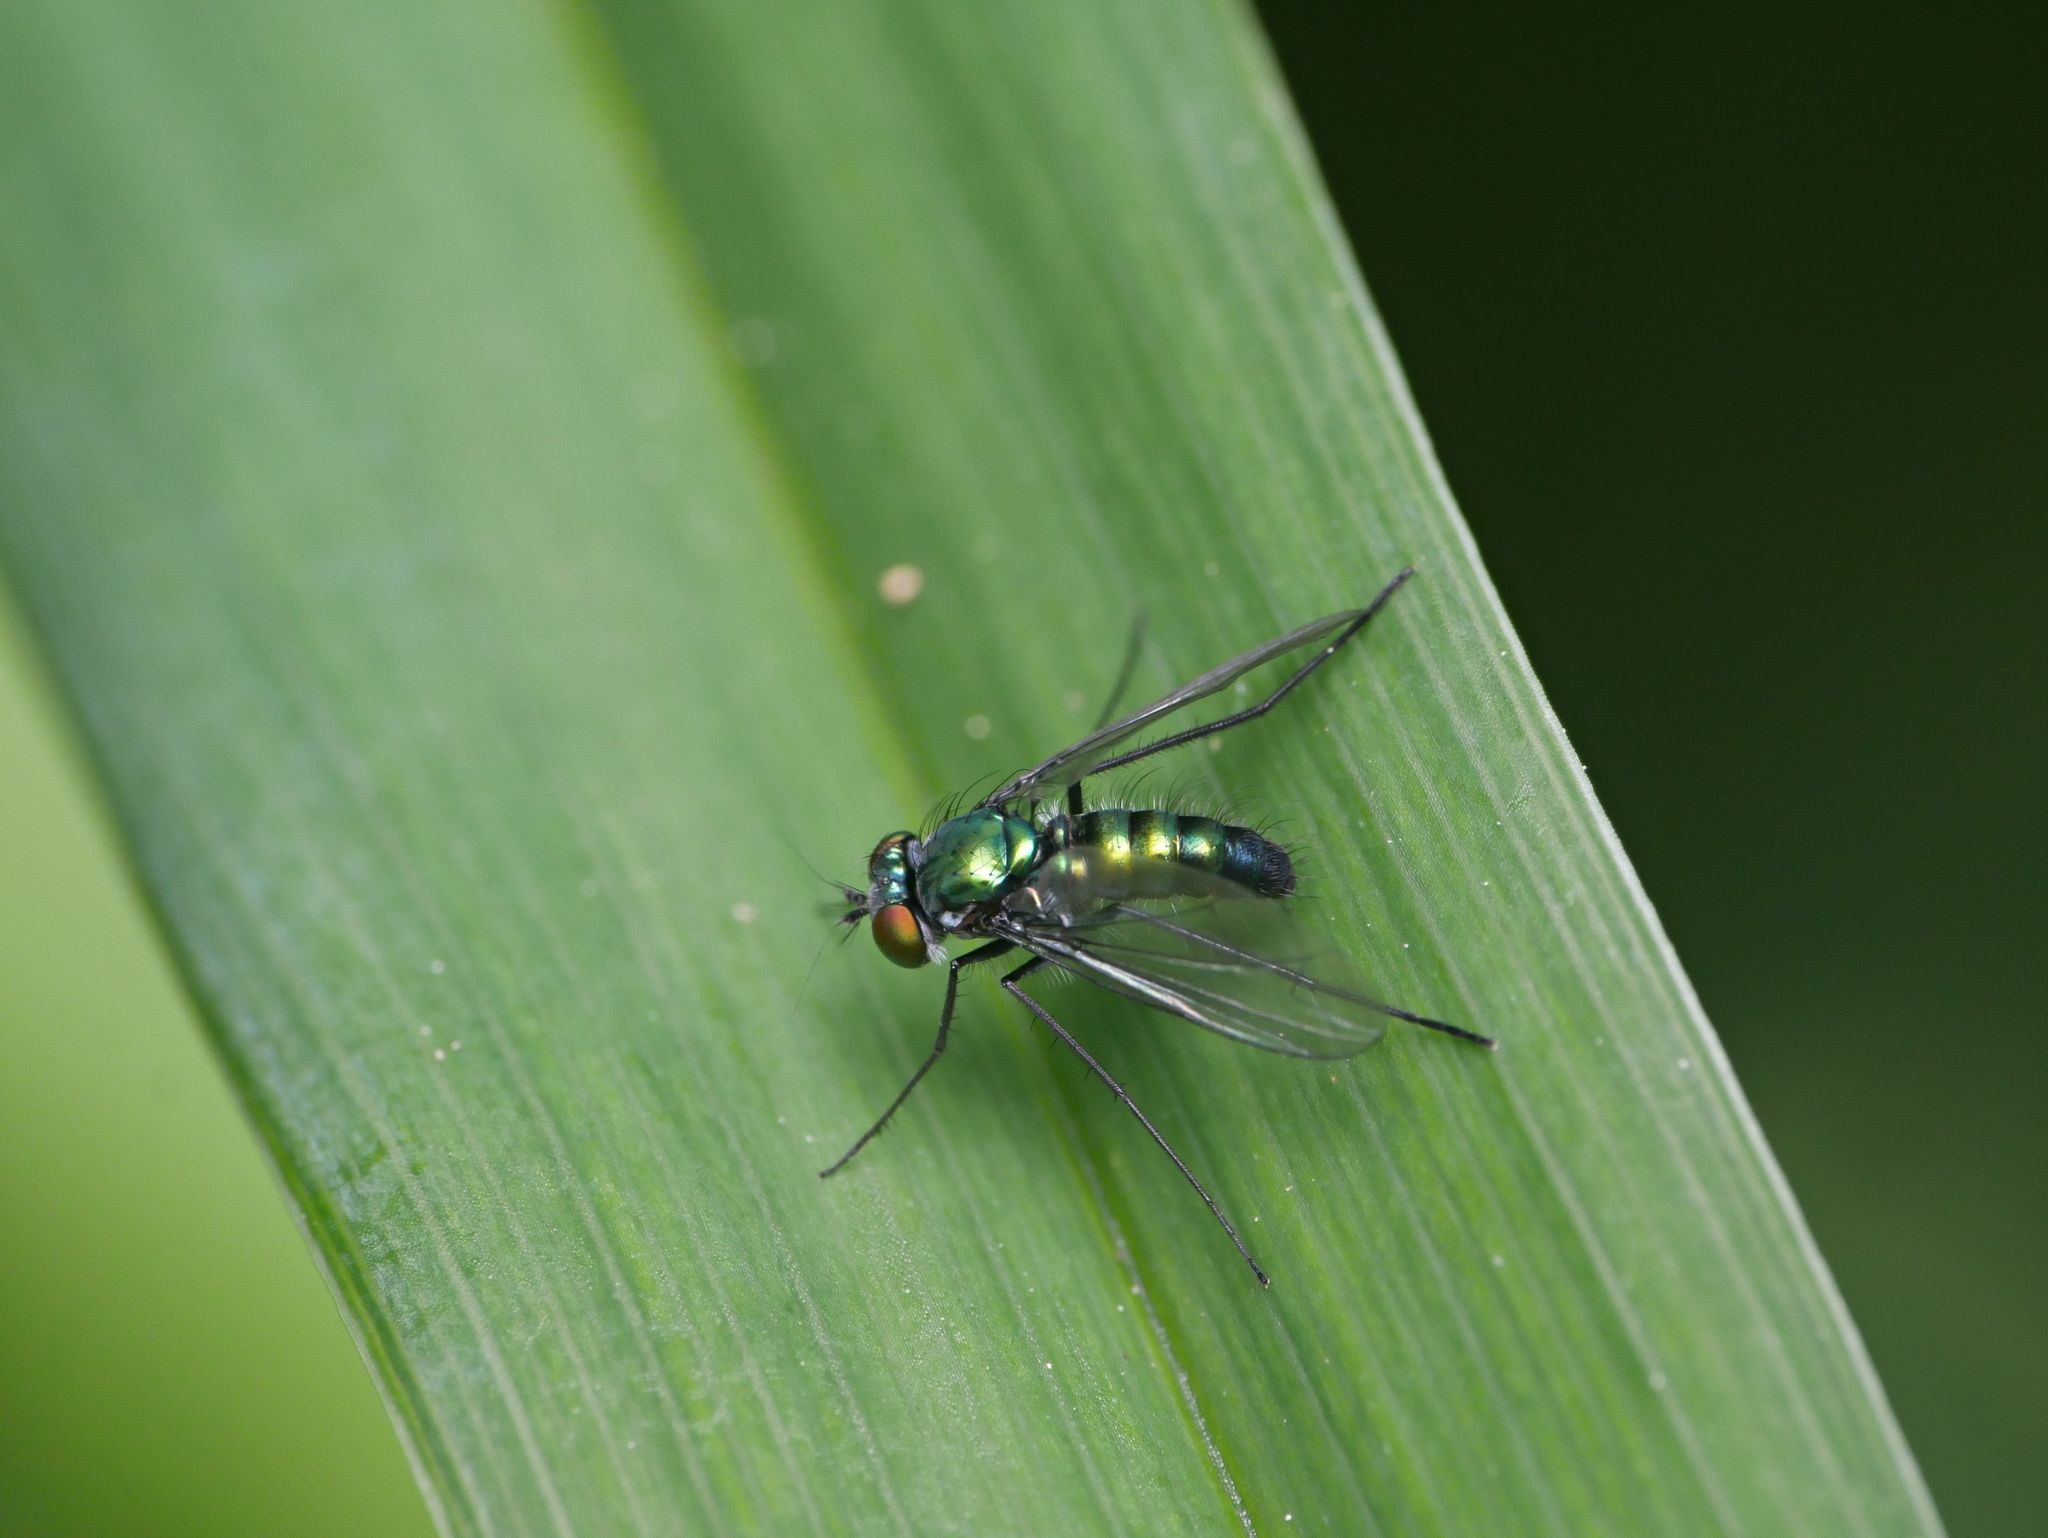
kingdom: Animalia
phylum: Arthropoda
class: Insecta
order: Diptera
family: Dolichopodidae
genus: Condylostylus
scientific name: Condylostylus patibulatus
